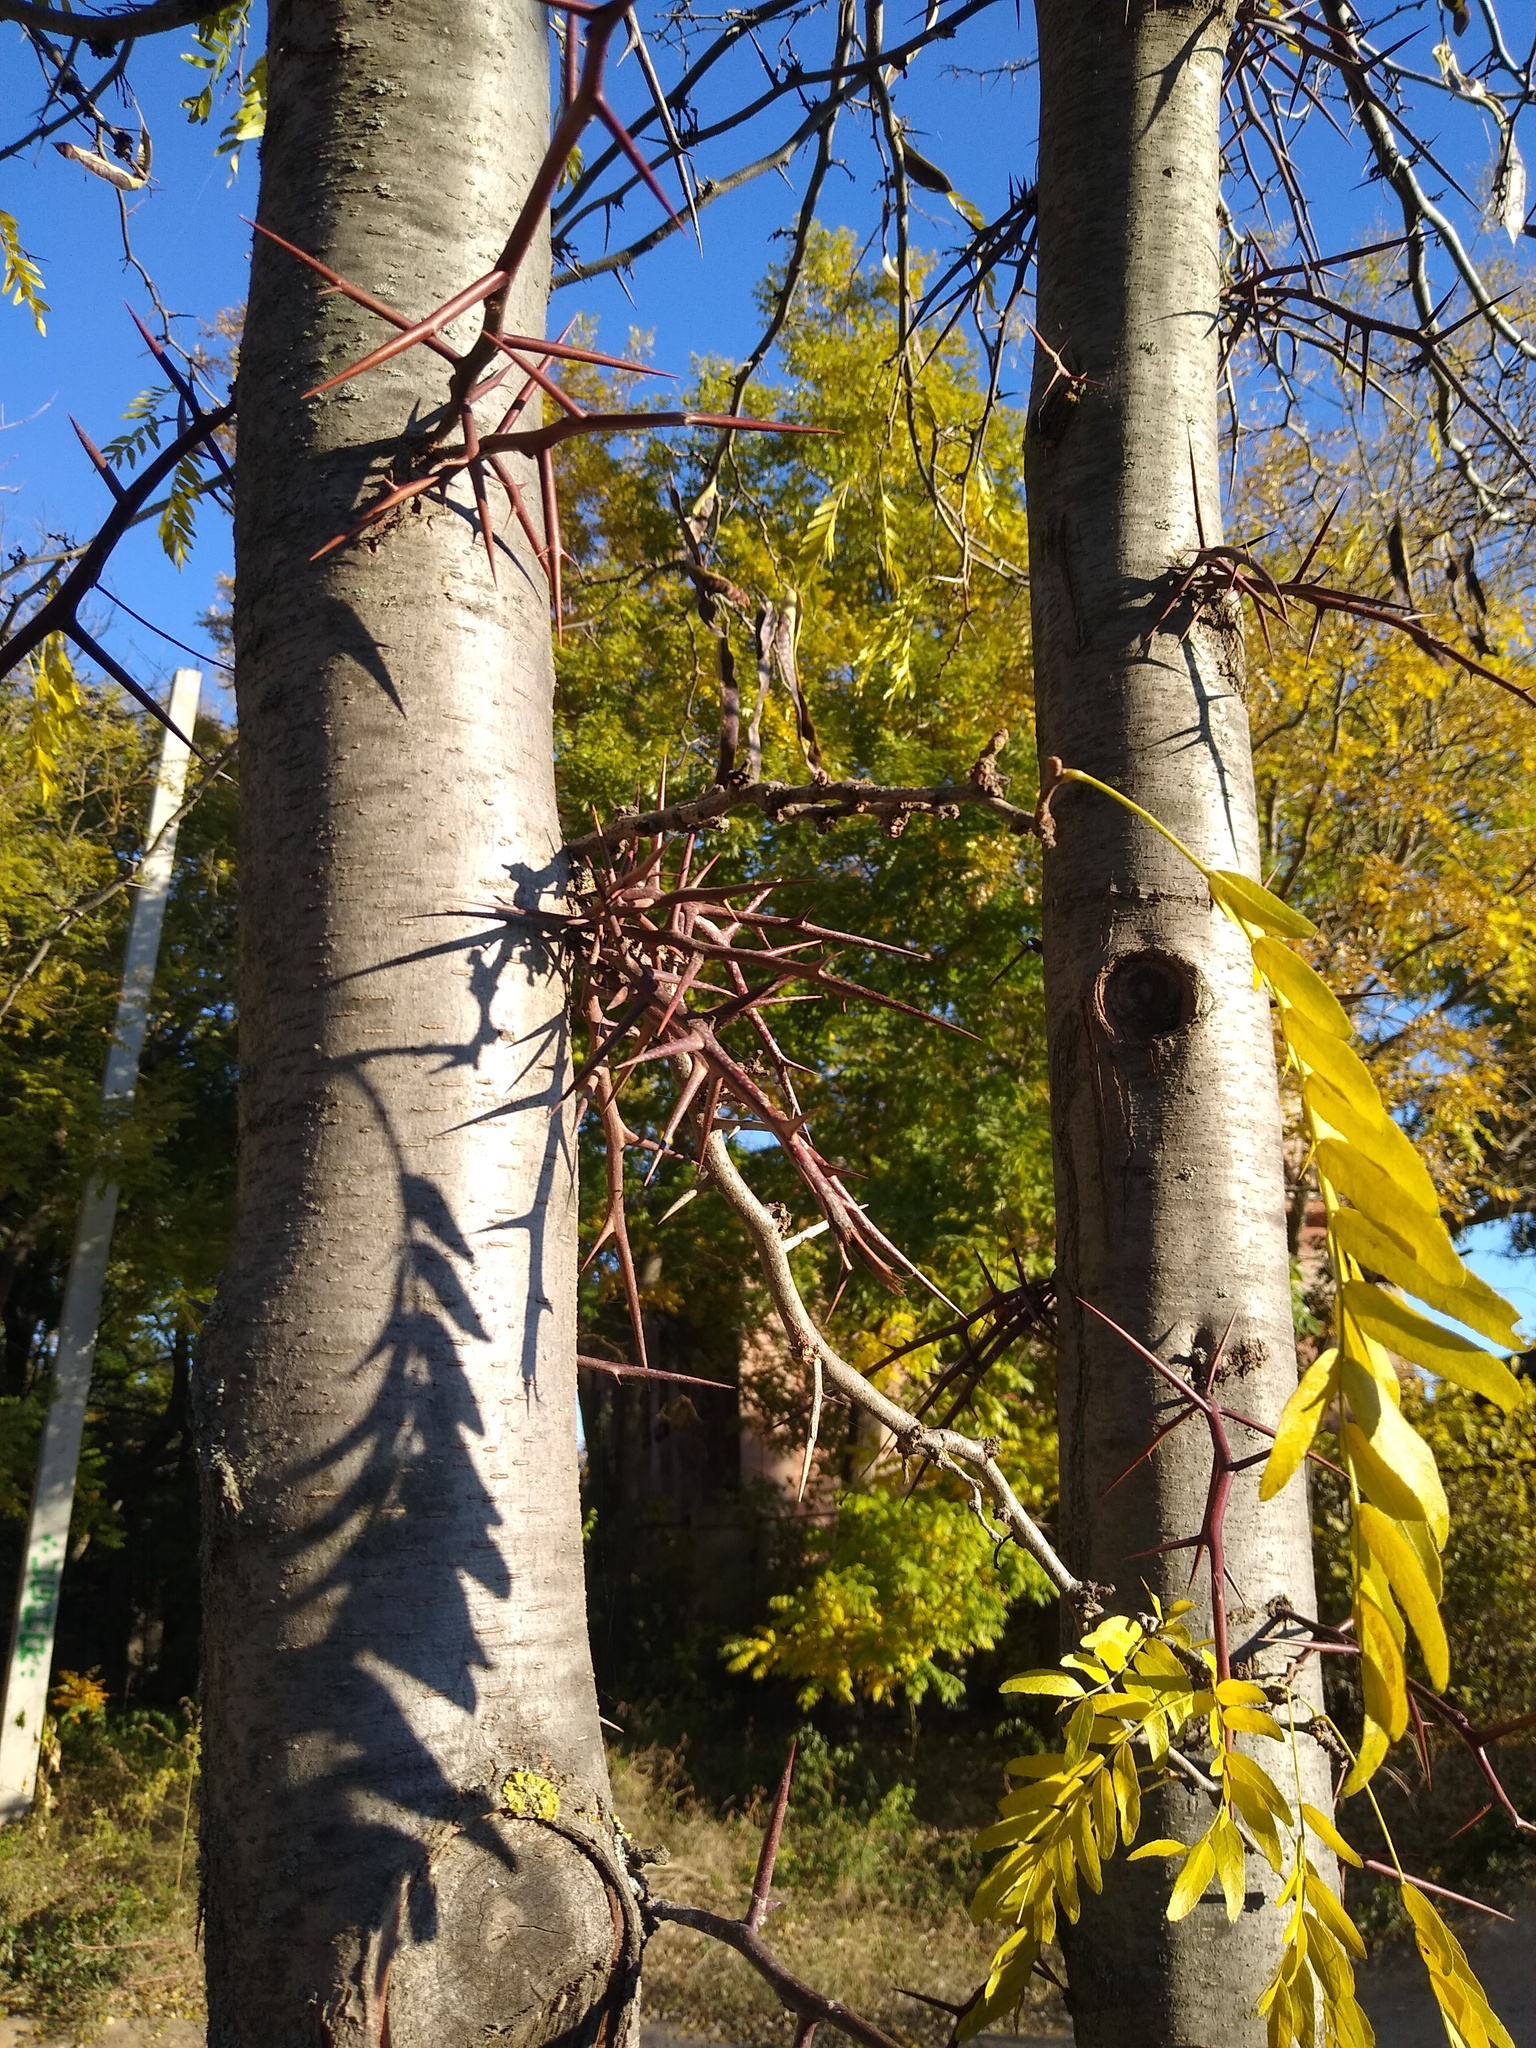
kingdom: Plantae
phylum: Tracheophyta
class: Magnoliopsida
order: Fabales
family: Fabaceae
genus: Gleditsia
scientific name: Gleditsia triacanthos
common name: Common honeylocust
